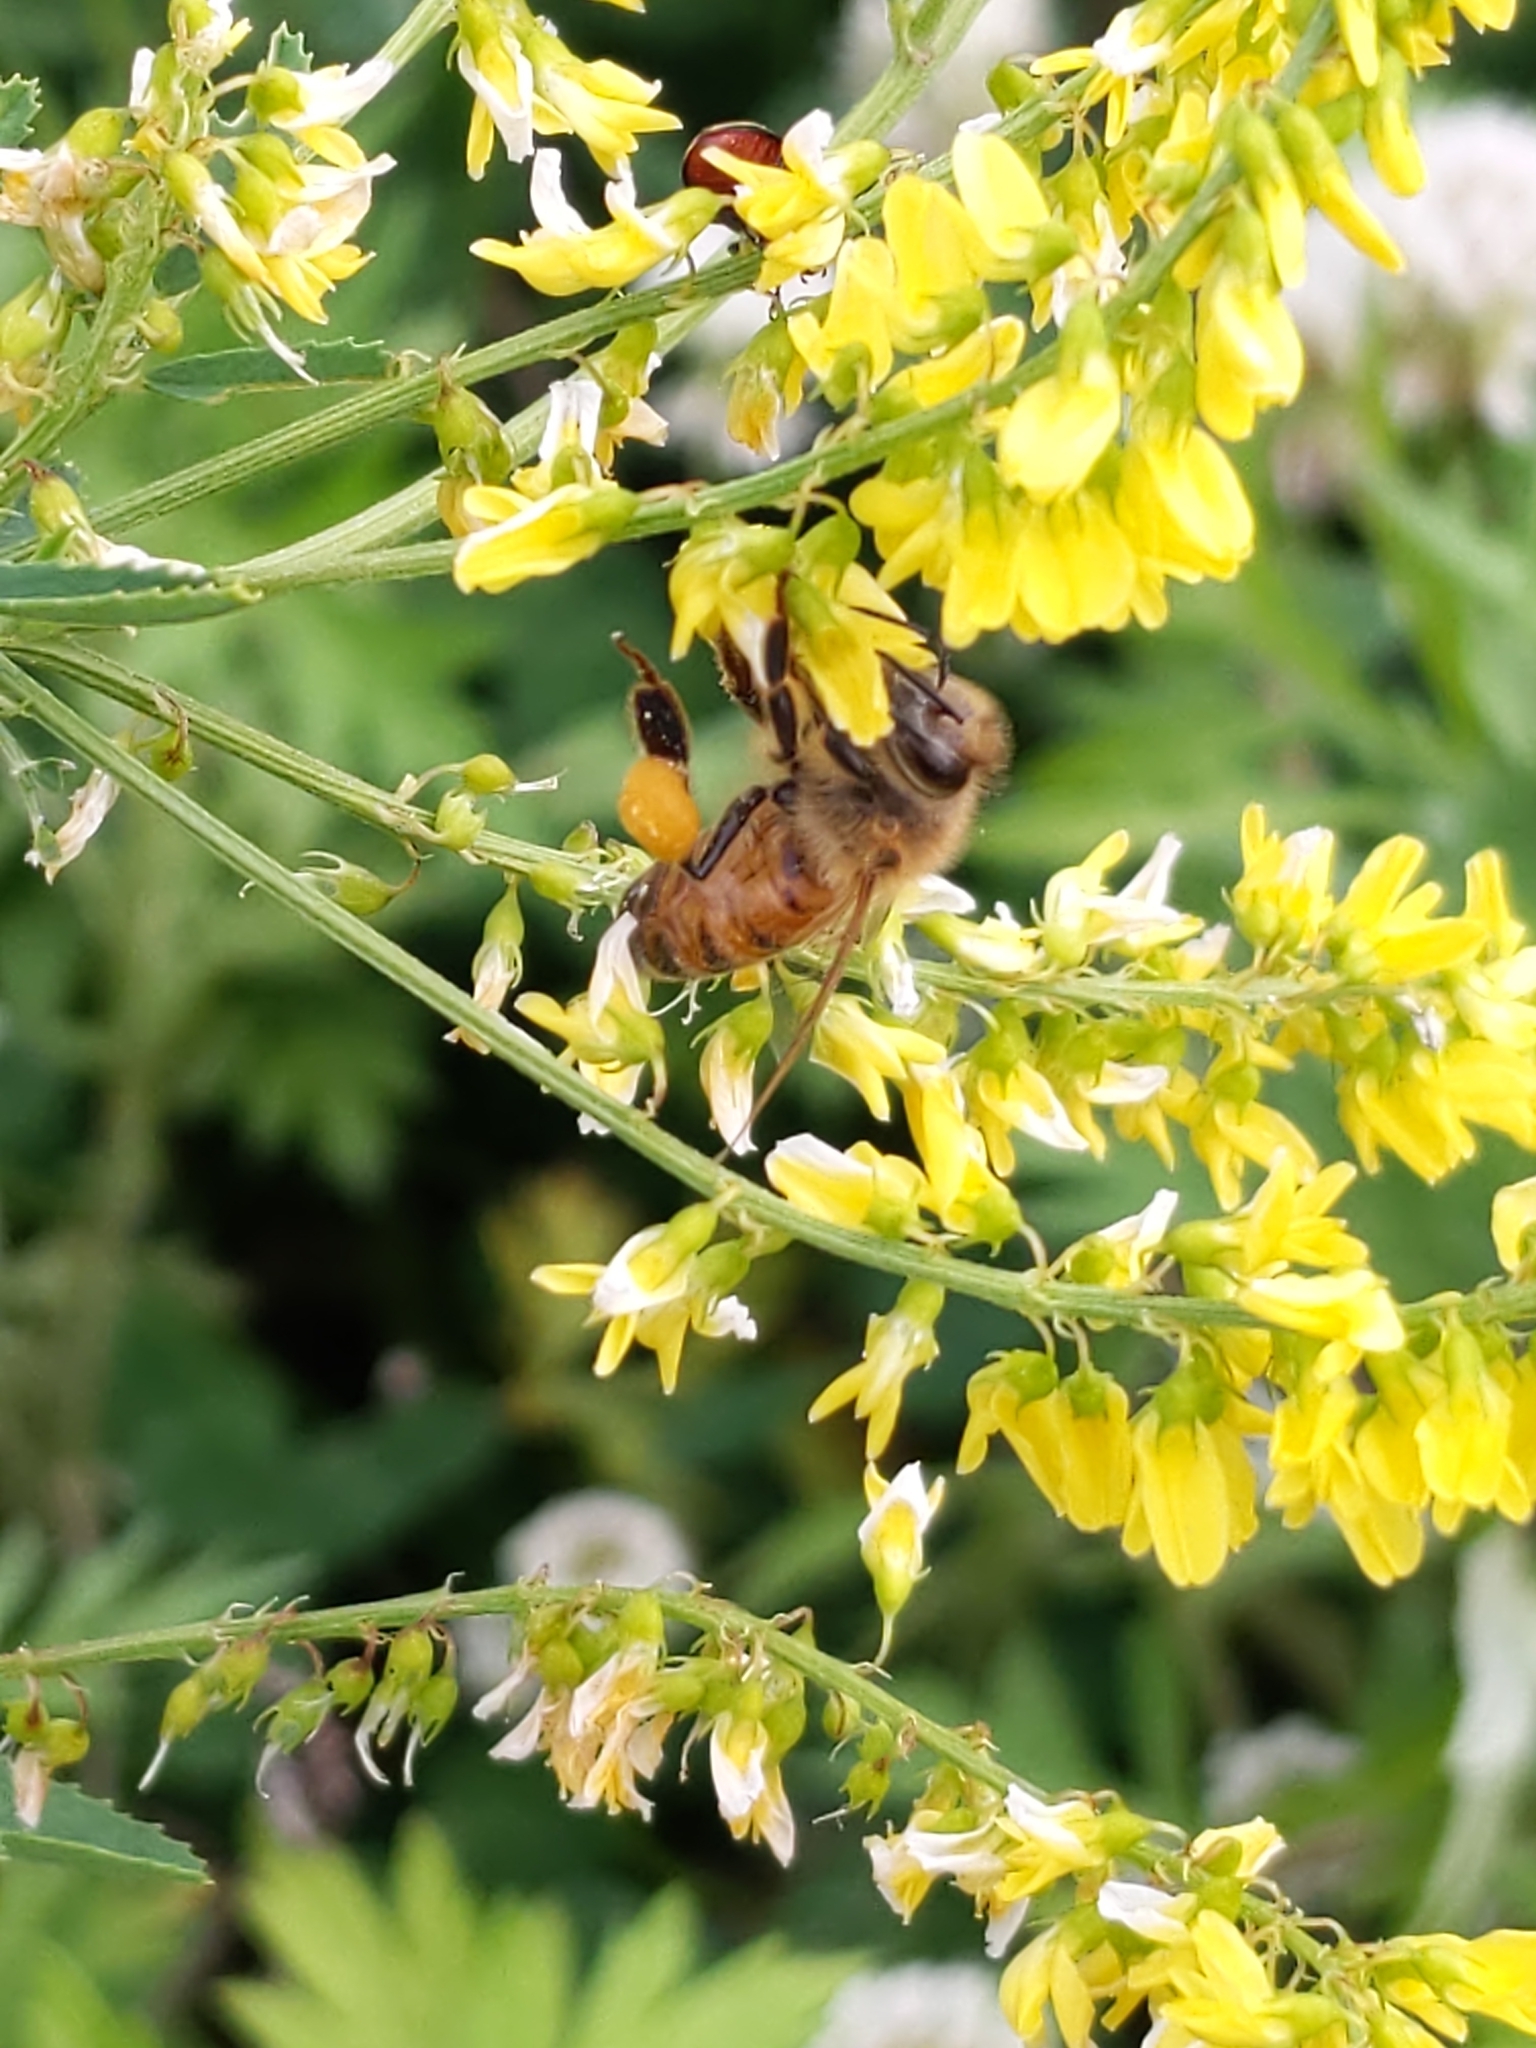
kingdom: Animalia
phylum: Arthropoda
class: Insecta
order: Hymenoptera
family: Apidae
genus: Apis
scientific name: Apis mellifera
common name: Honey bee
